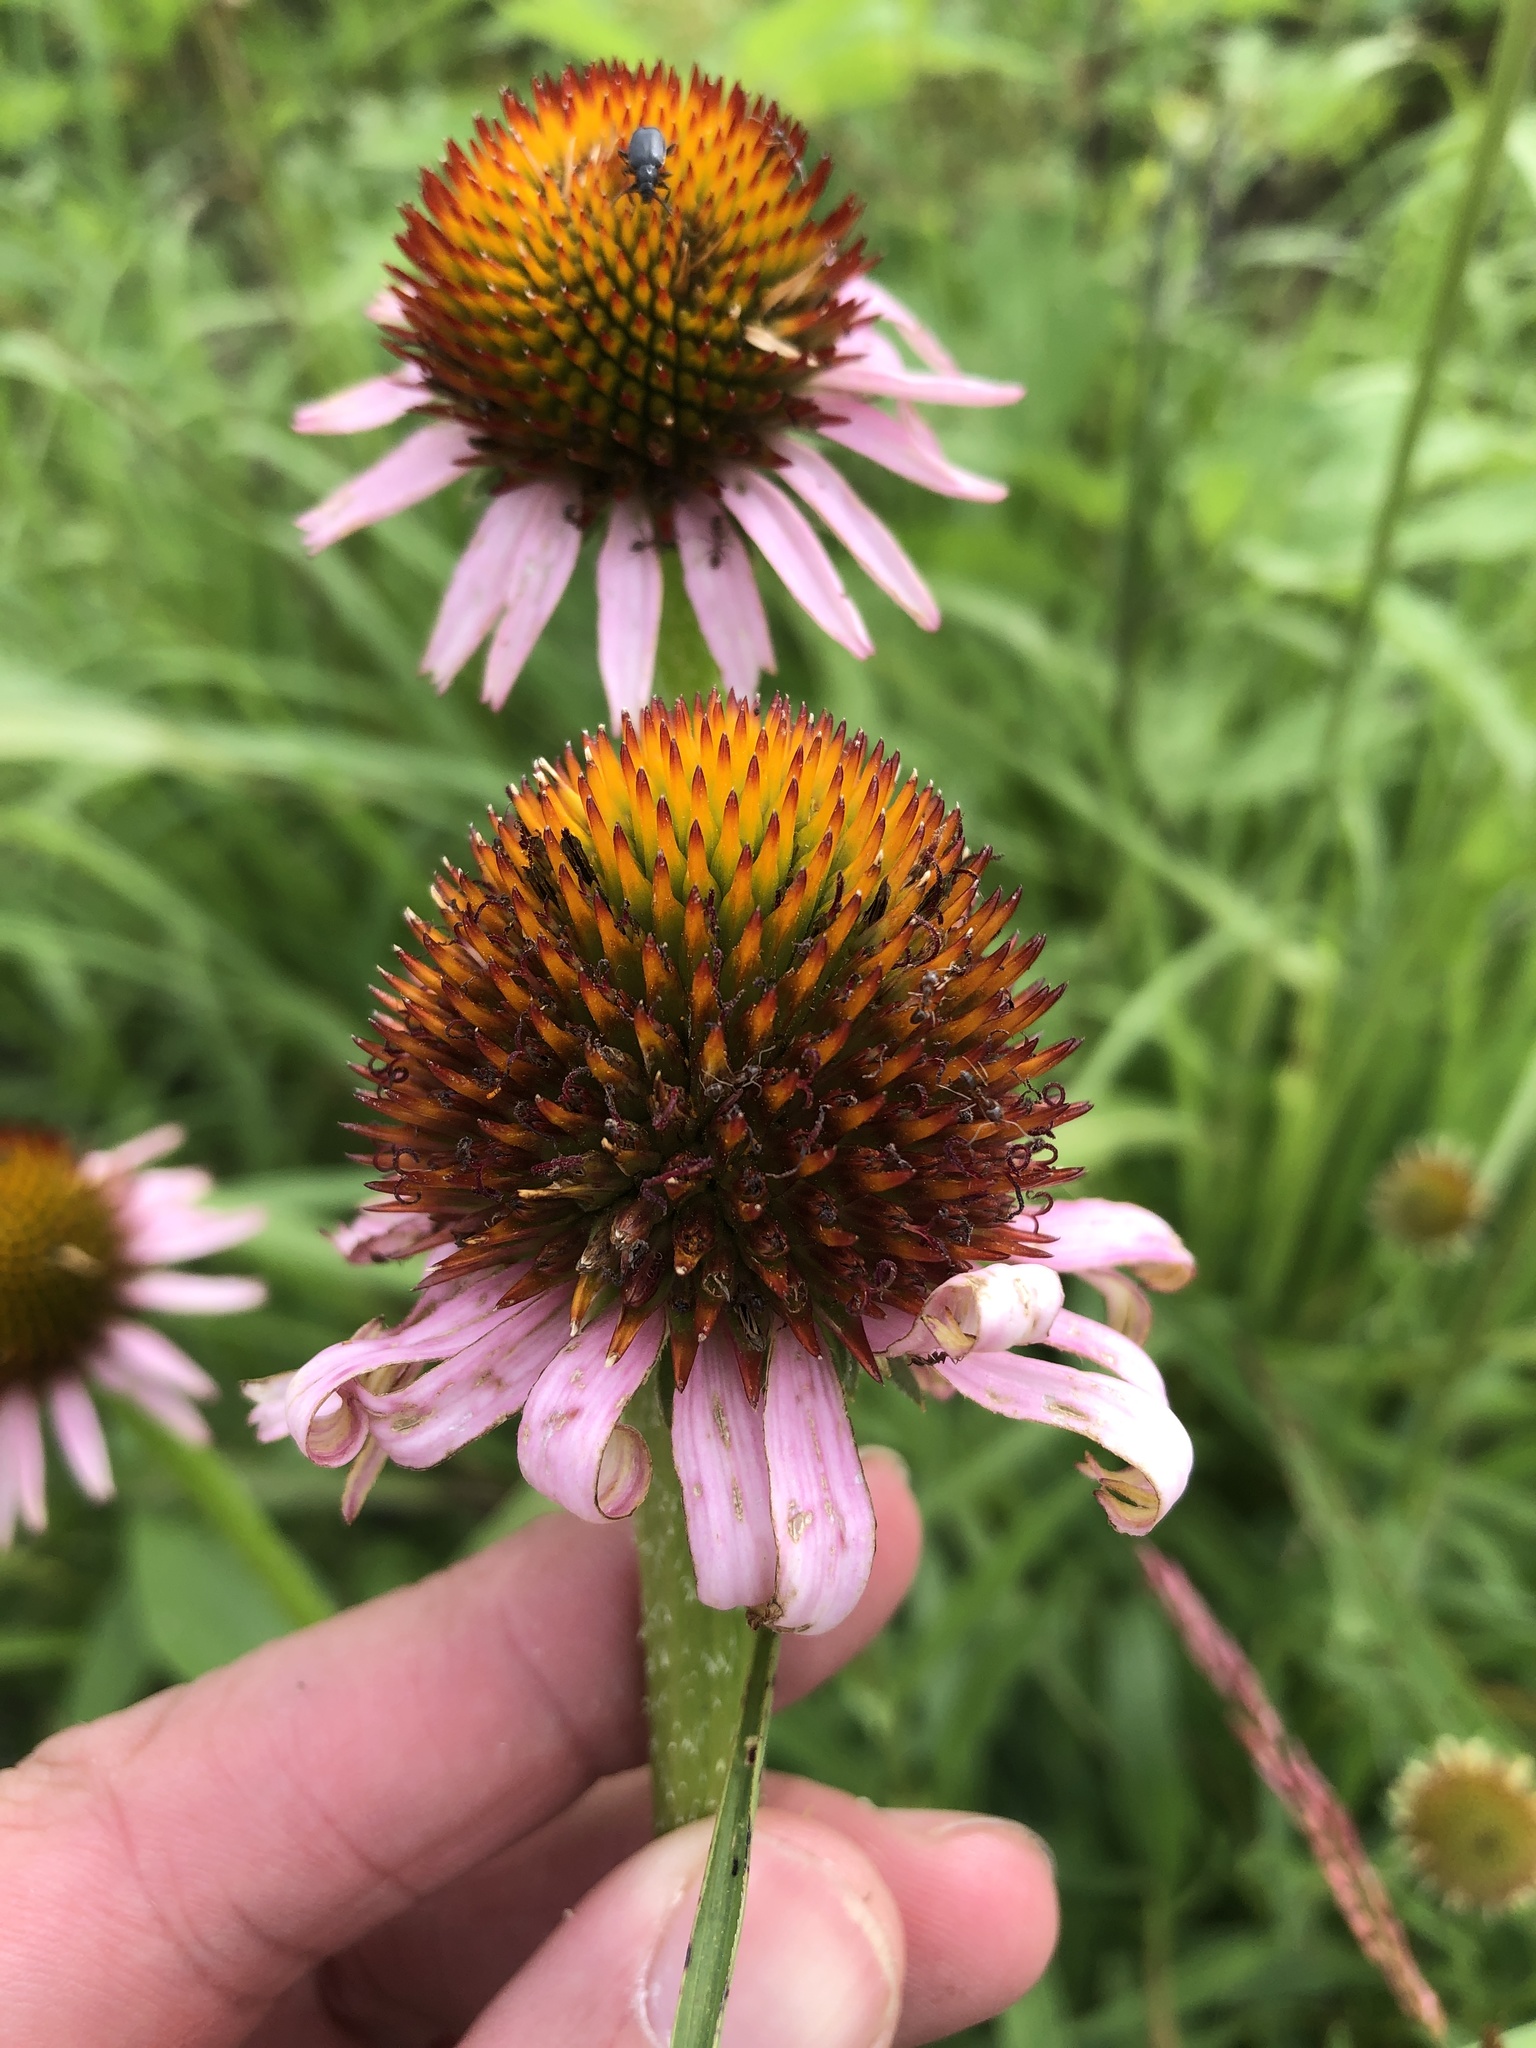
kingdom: Plantae
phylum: Tracheophyta
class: Magnoliopsida
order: Asterales
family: Asteraceae
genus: Echinacea
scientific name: Echinacea atrorubens
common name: Topeka purple-coneflower
